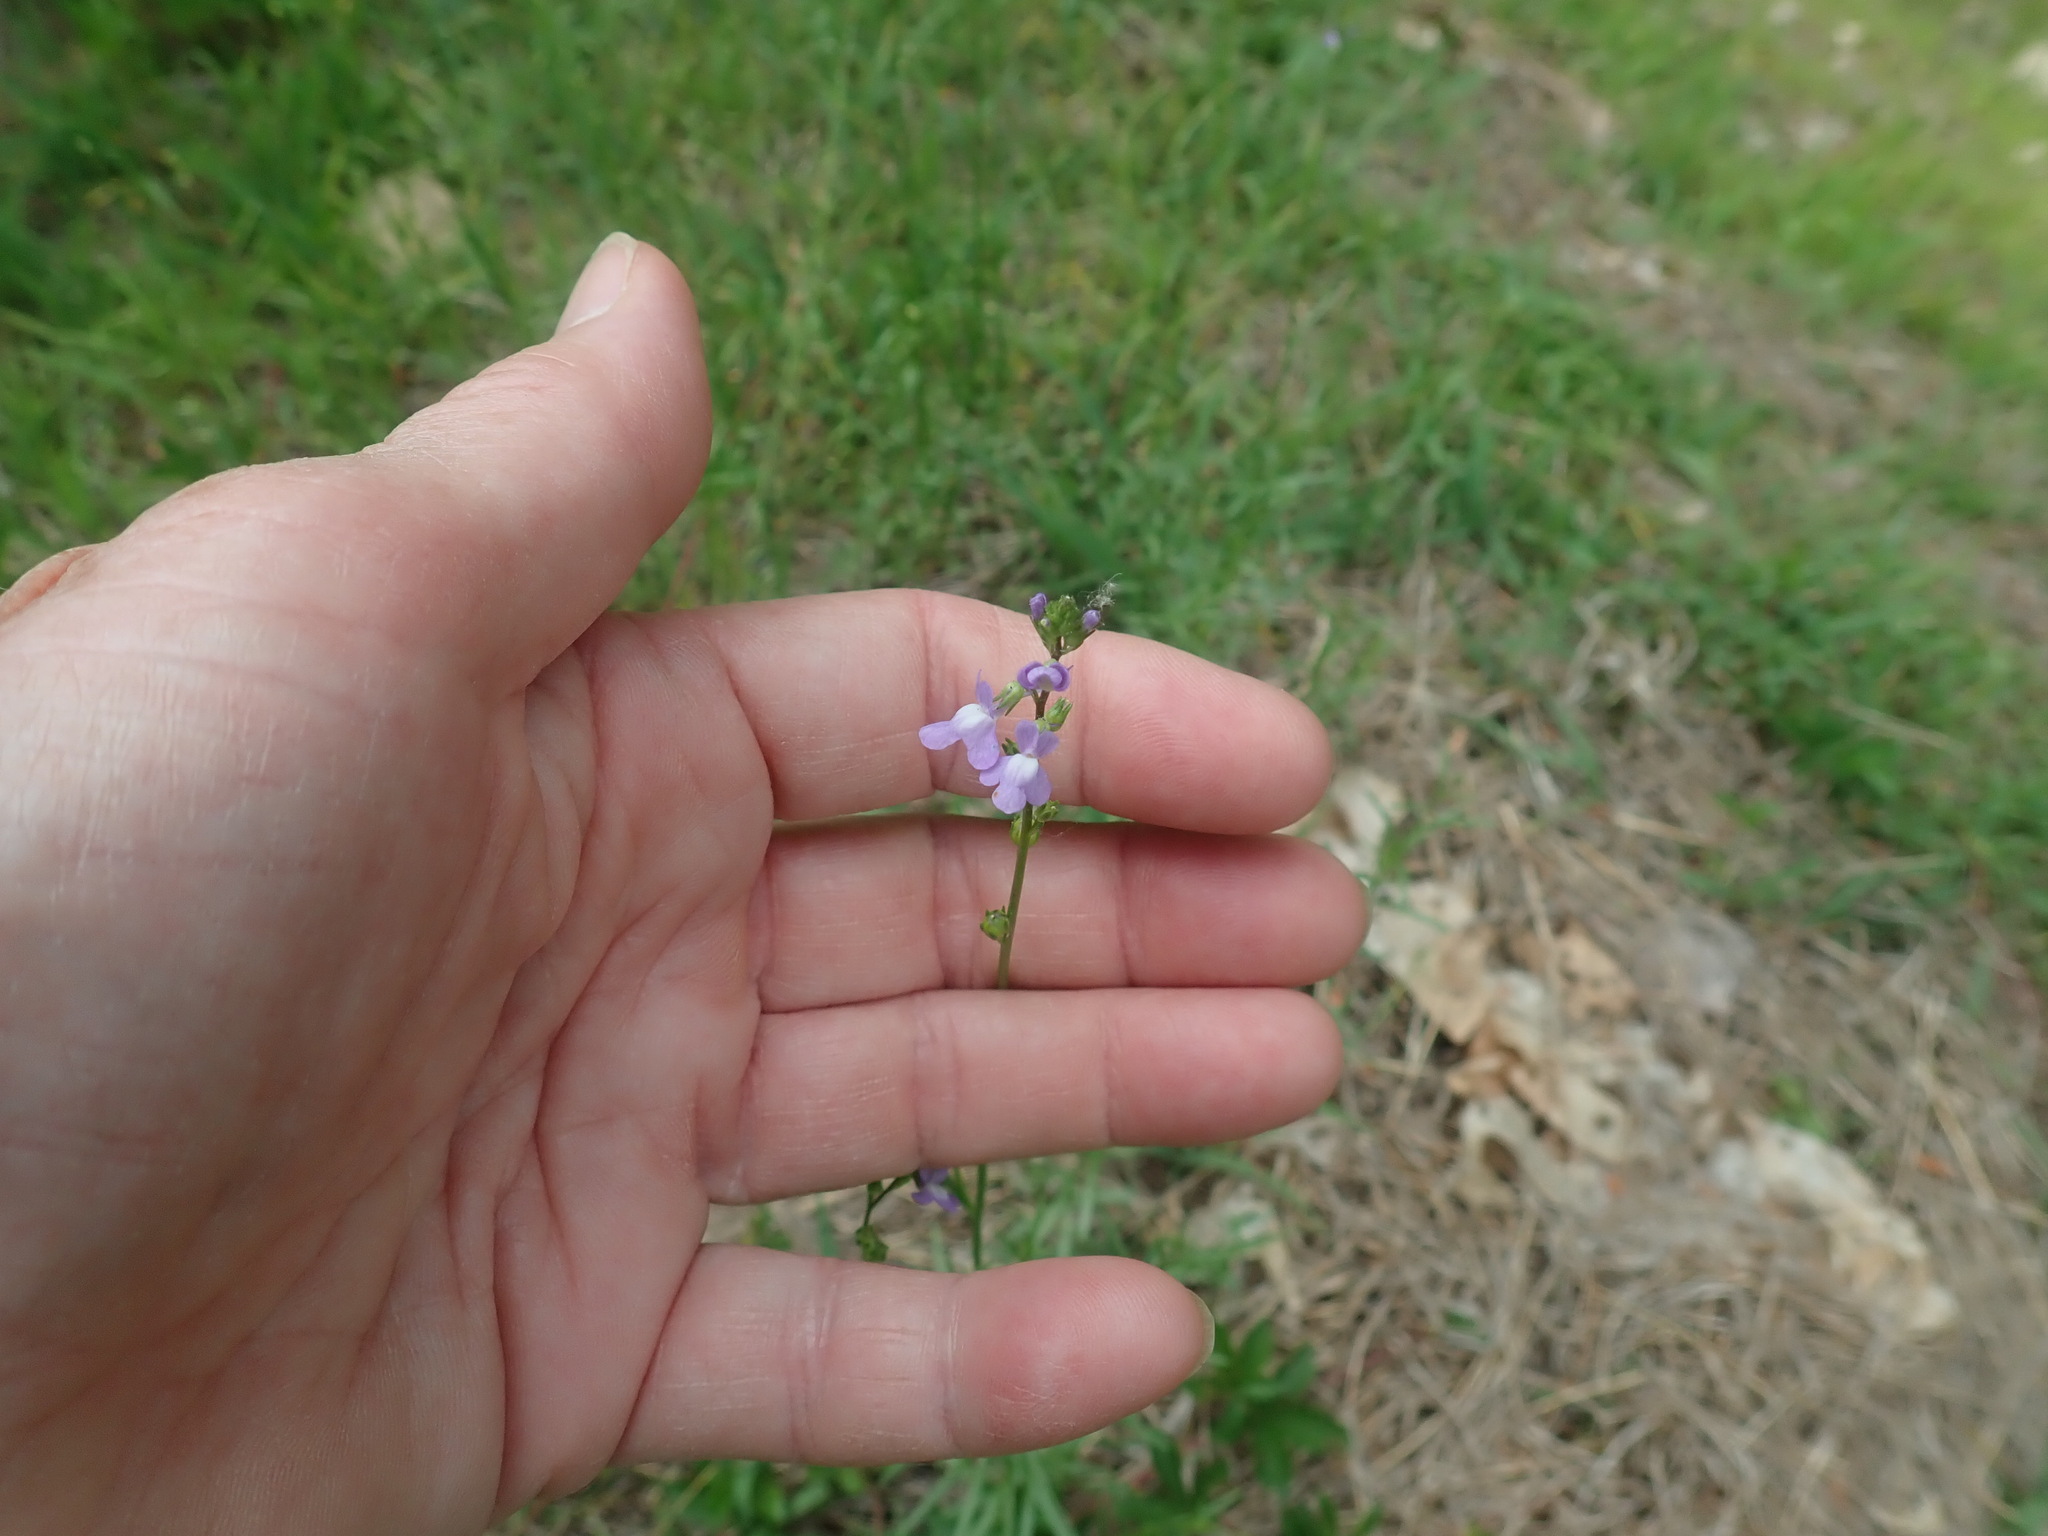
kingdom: Plantae
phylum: Tracheophyta
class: Magnoliopsida
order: Lamiales
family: Plantaginaceae
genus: Nuttallanthus
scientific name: Nuttallanthus canadensis
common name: Blue toadflax
